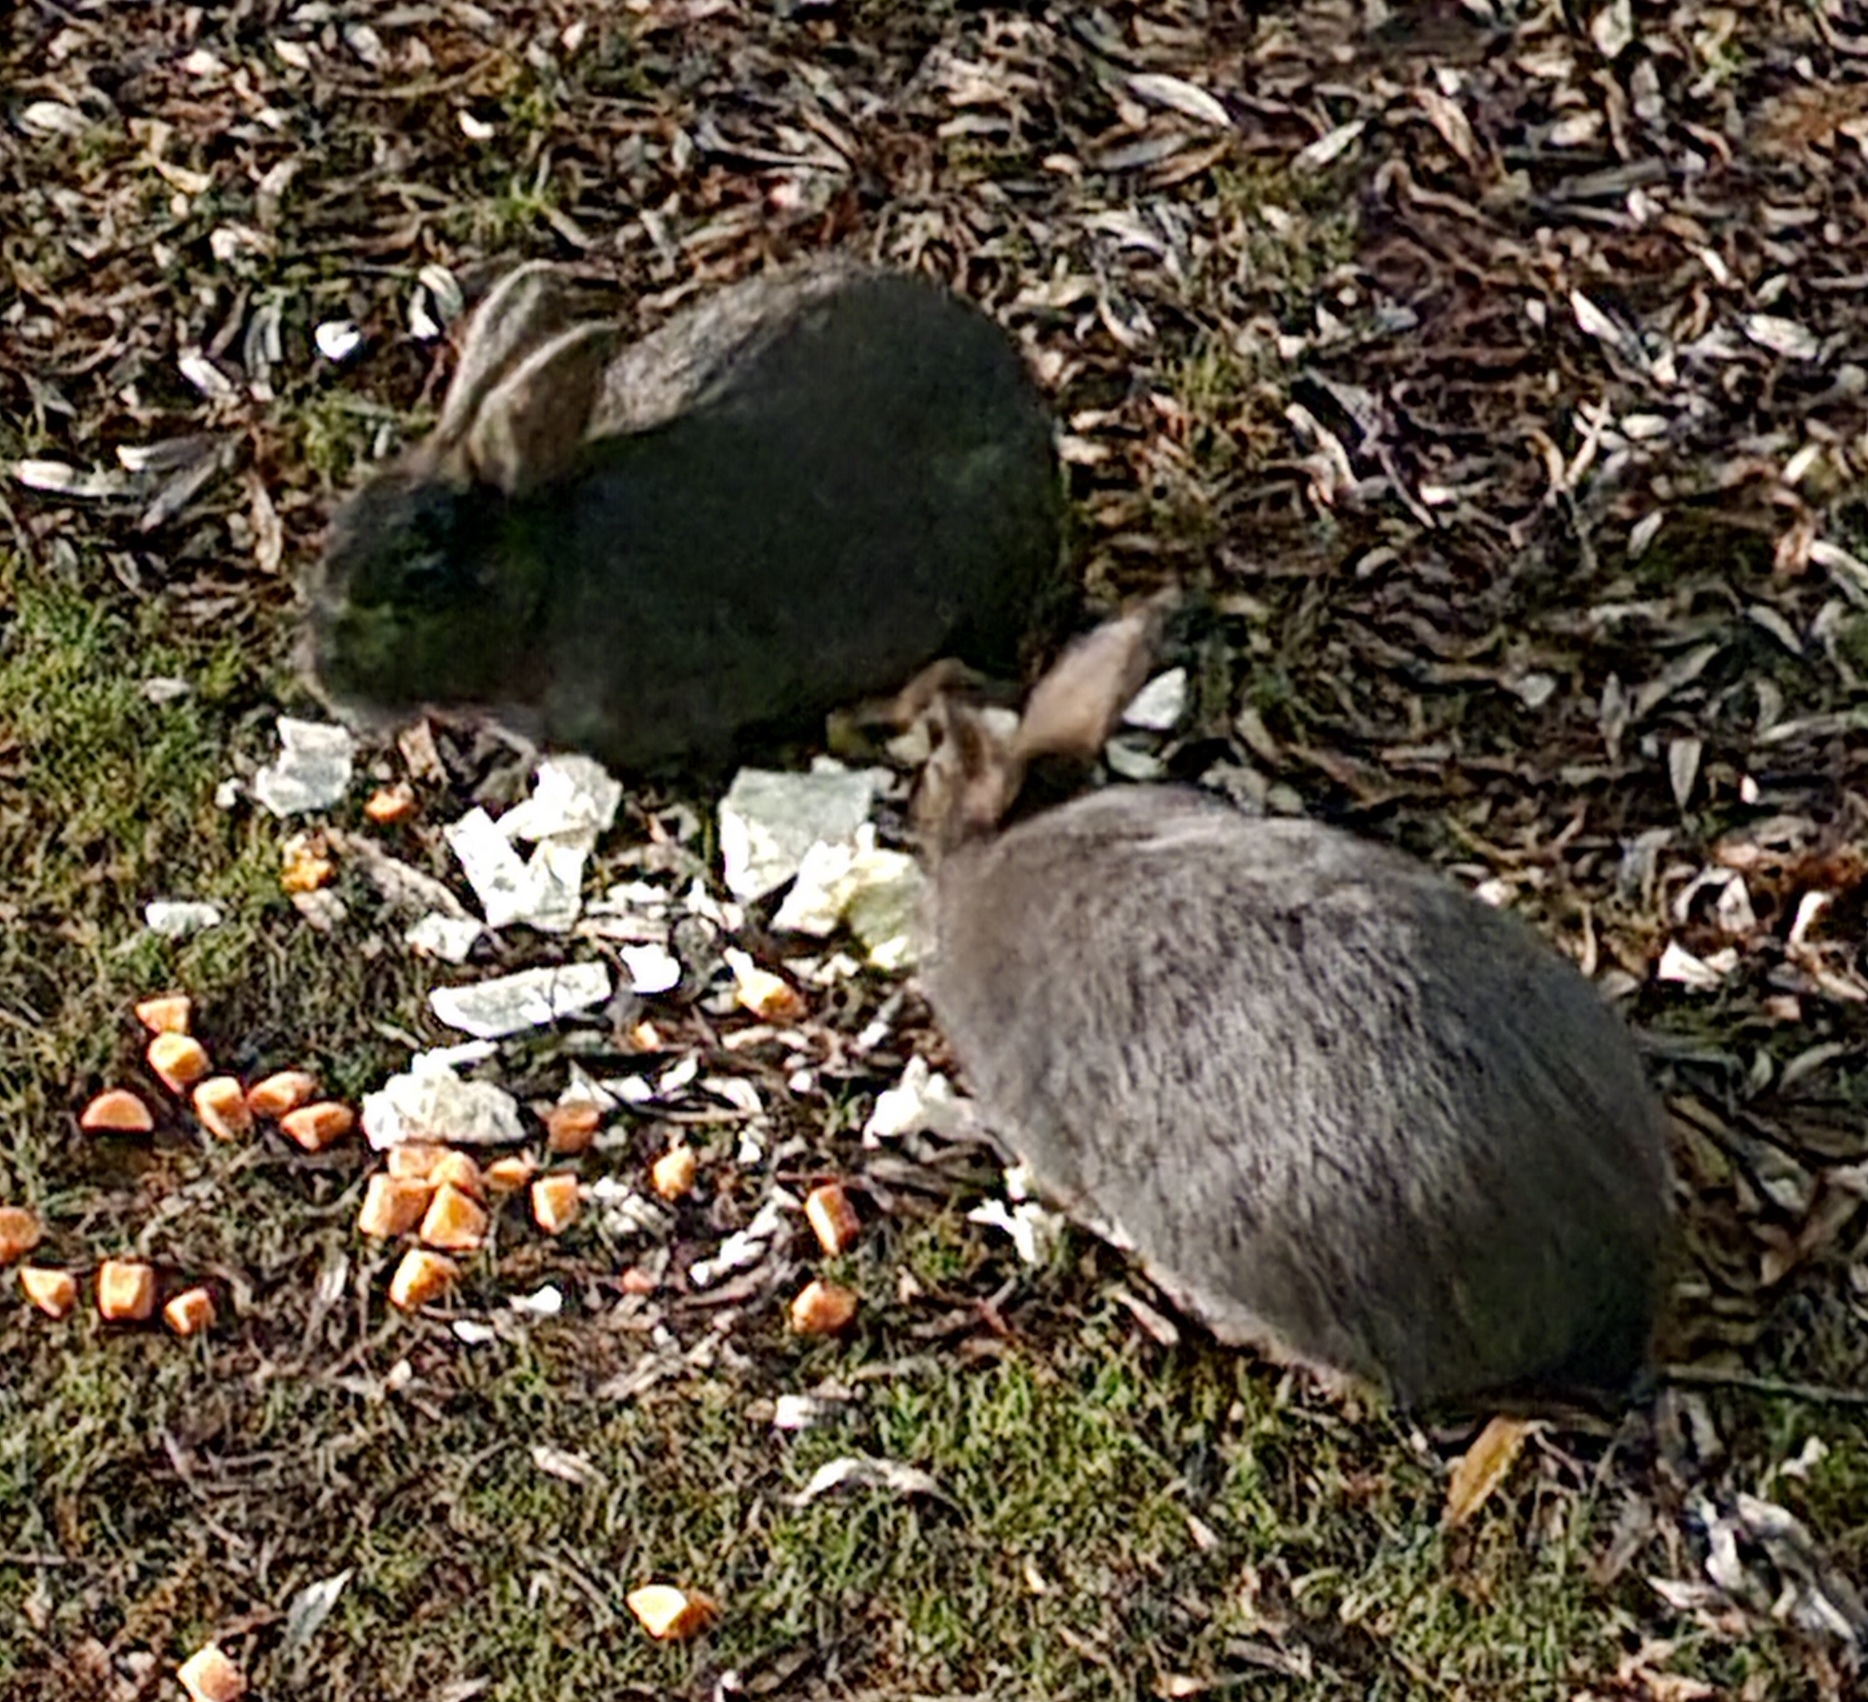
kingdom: Animalia
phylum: Chordata
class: Mammalia
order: Lagomorpha
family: Leporidae
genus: Oryctolagus
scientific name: Oryctolagus cuniculus
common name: European rabbit
